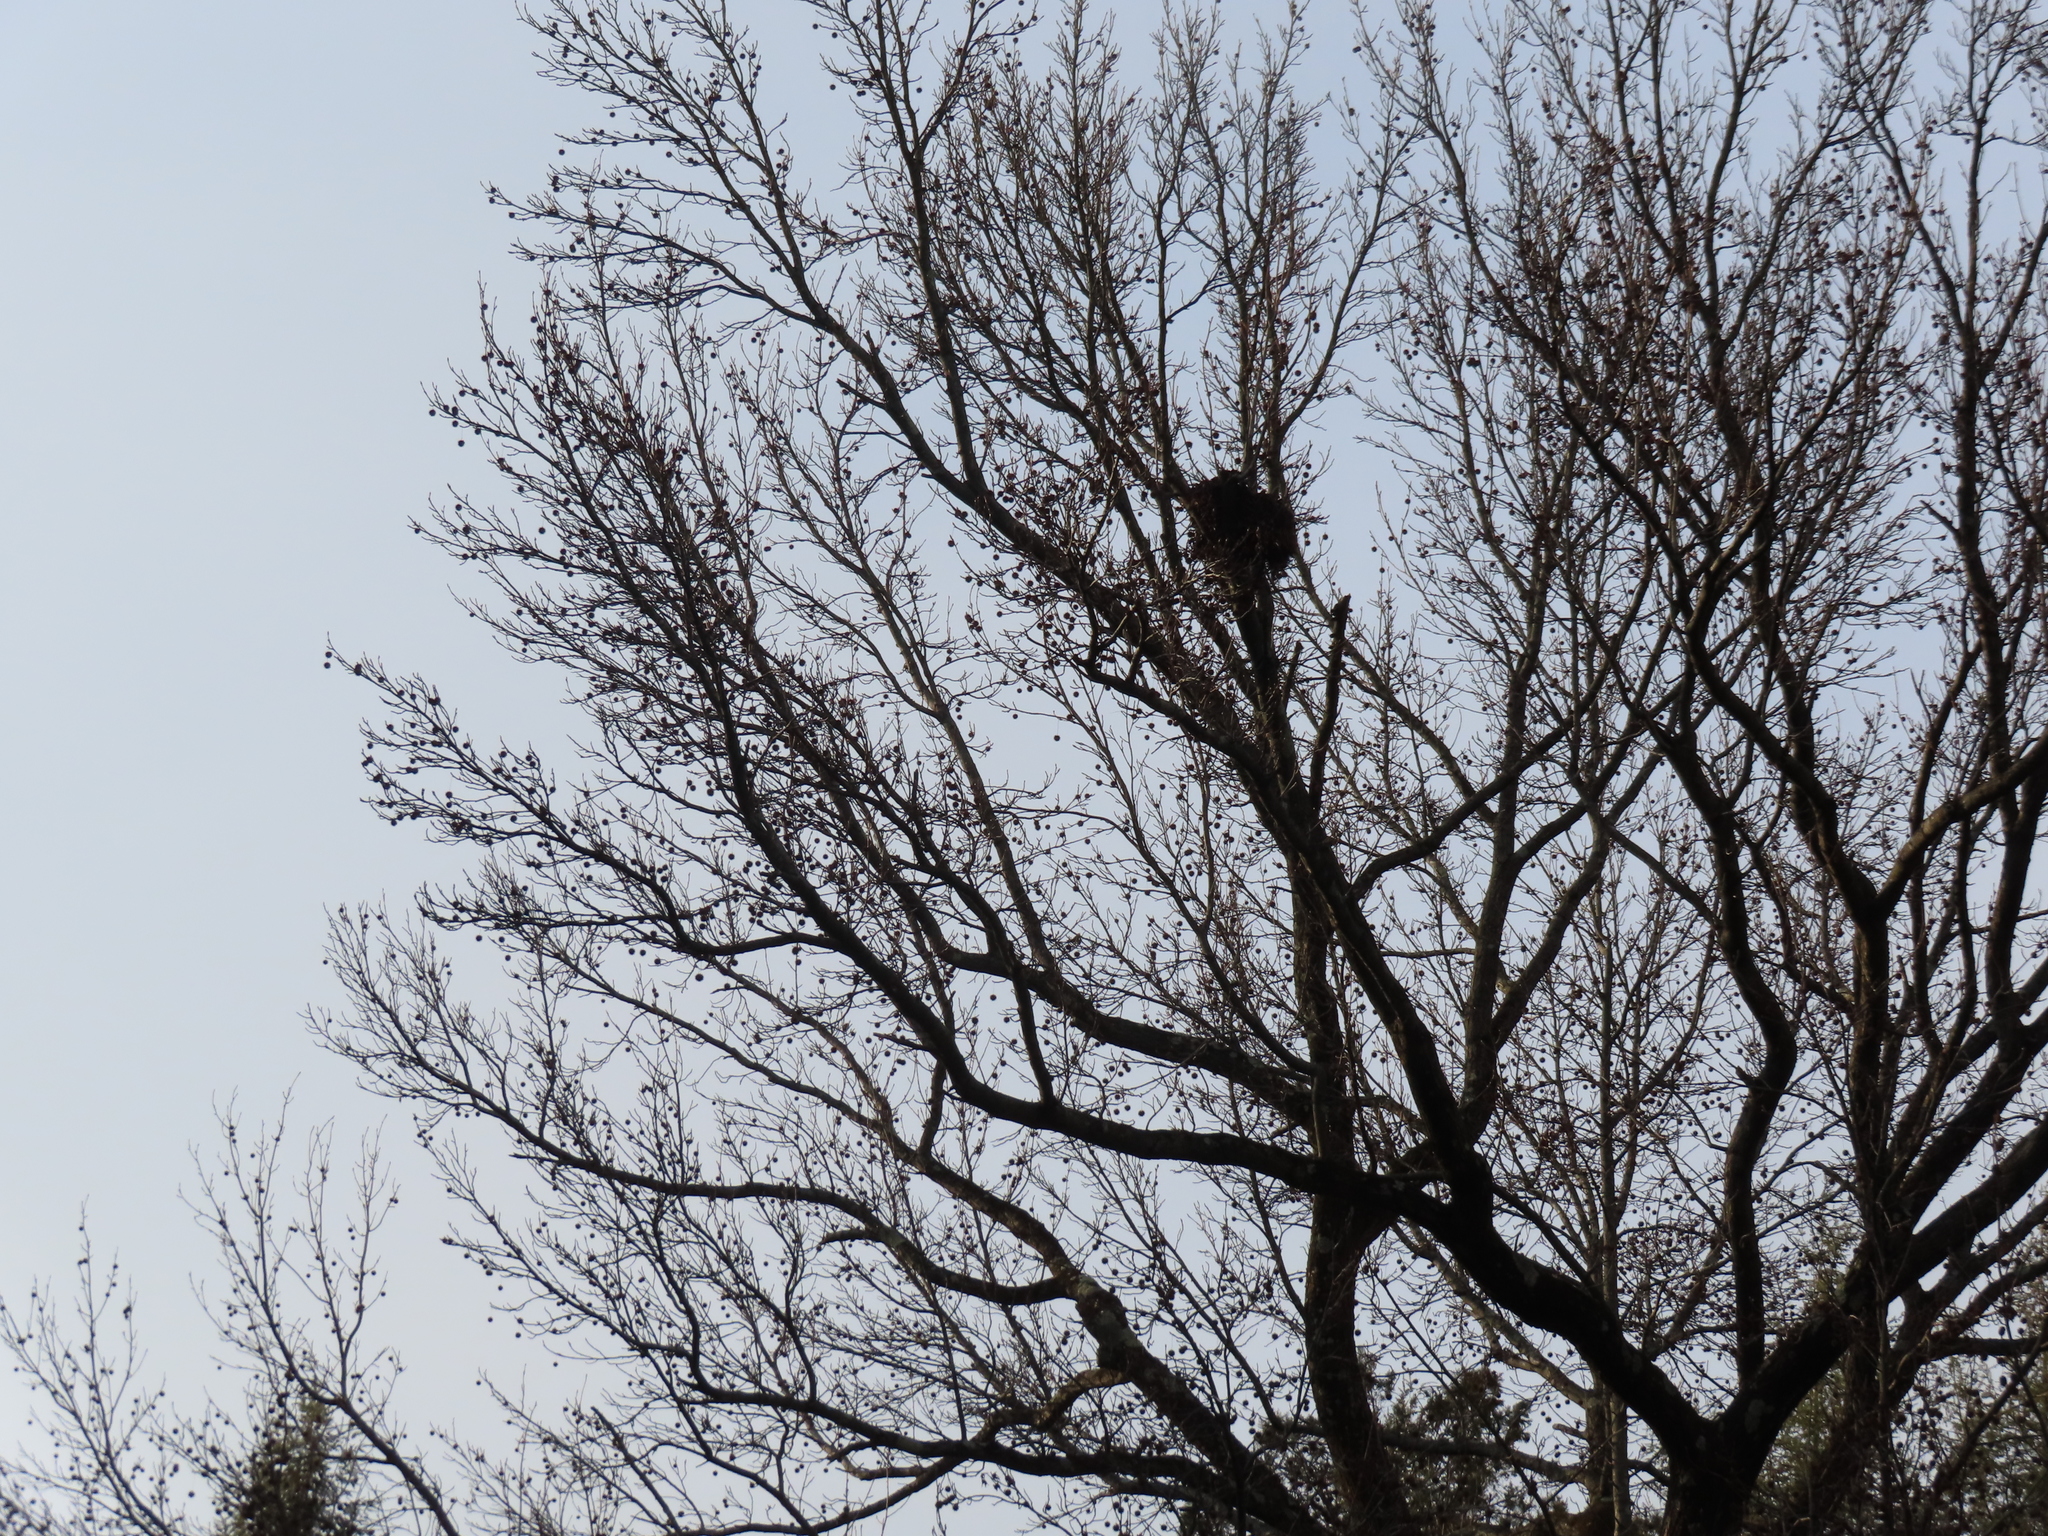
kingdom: Animalia
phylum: Chordata
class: Mammalia
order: Rodentia
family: Sciuridae
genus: Sciurus
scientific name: Sciurus carolinensis
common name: Eastern gray squirrel
